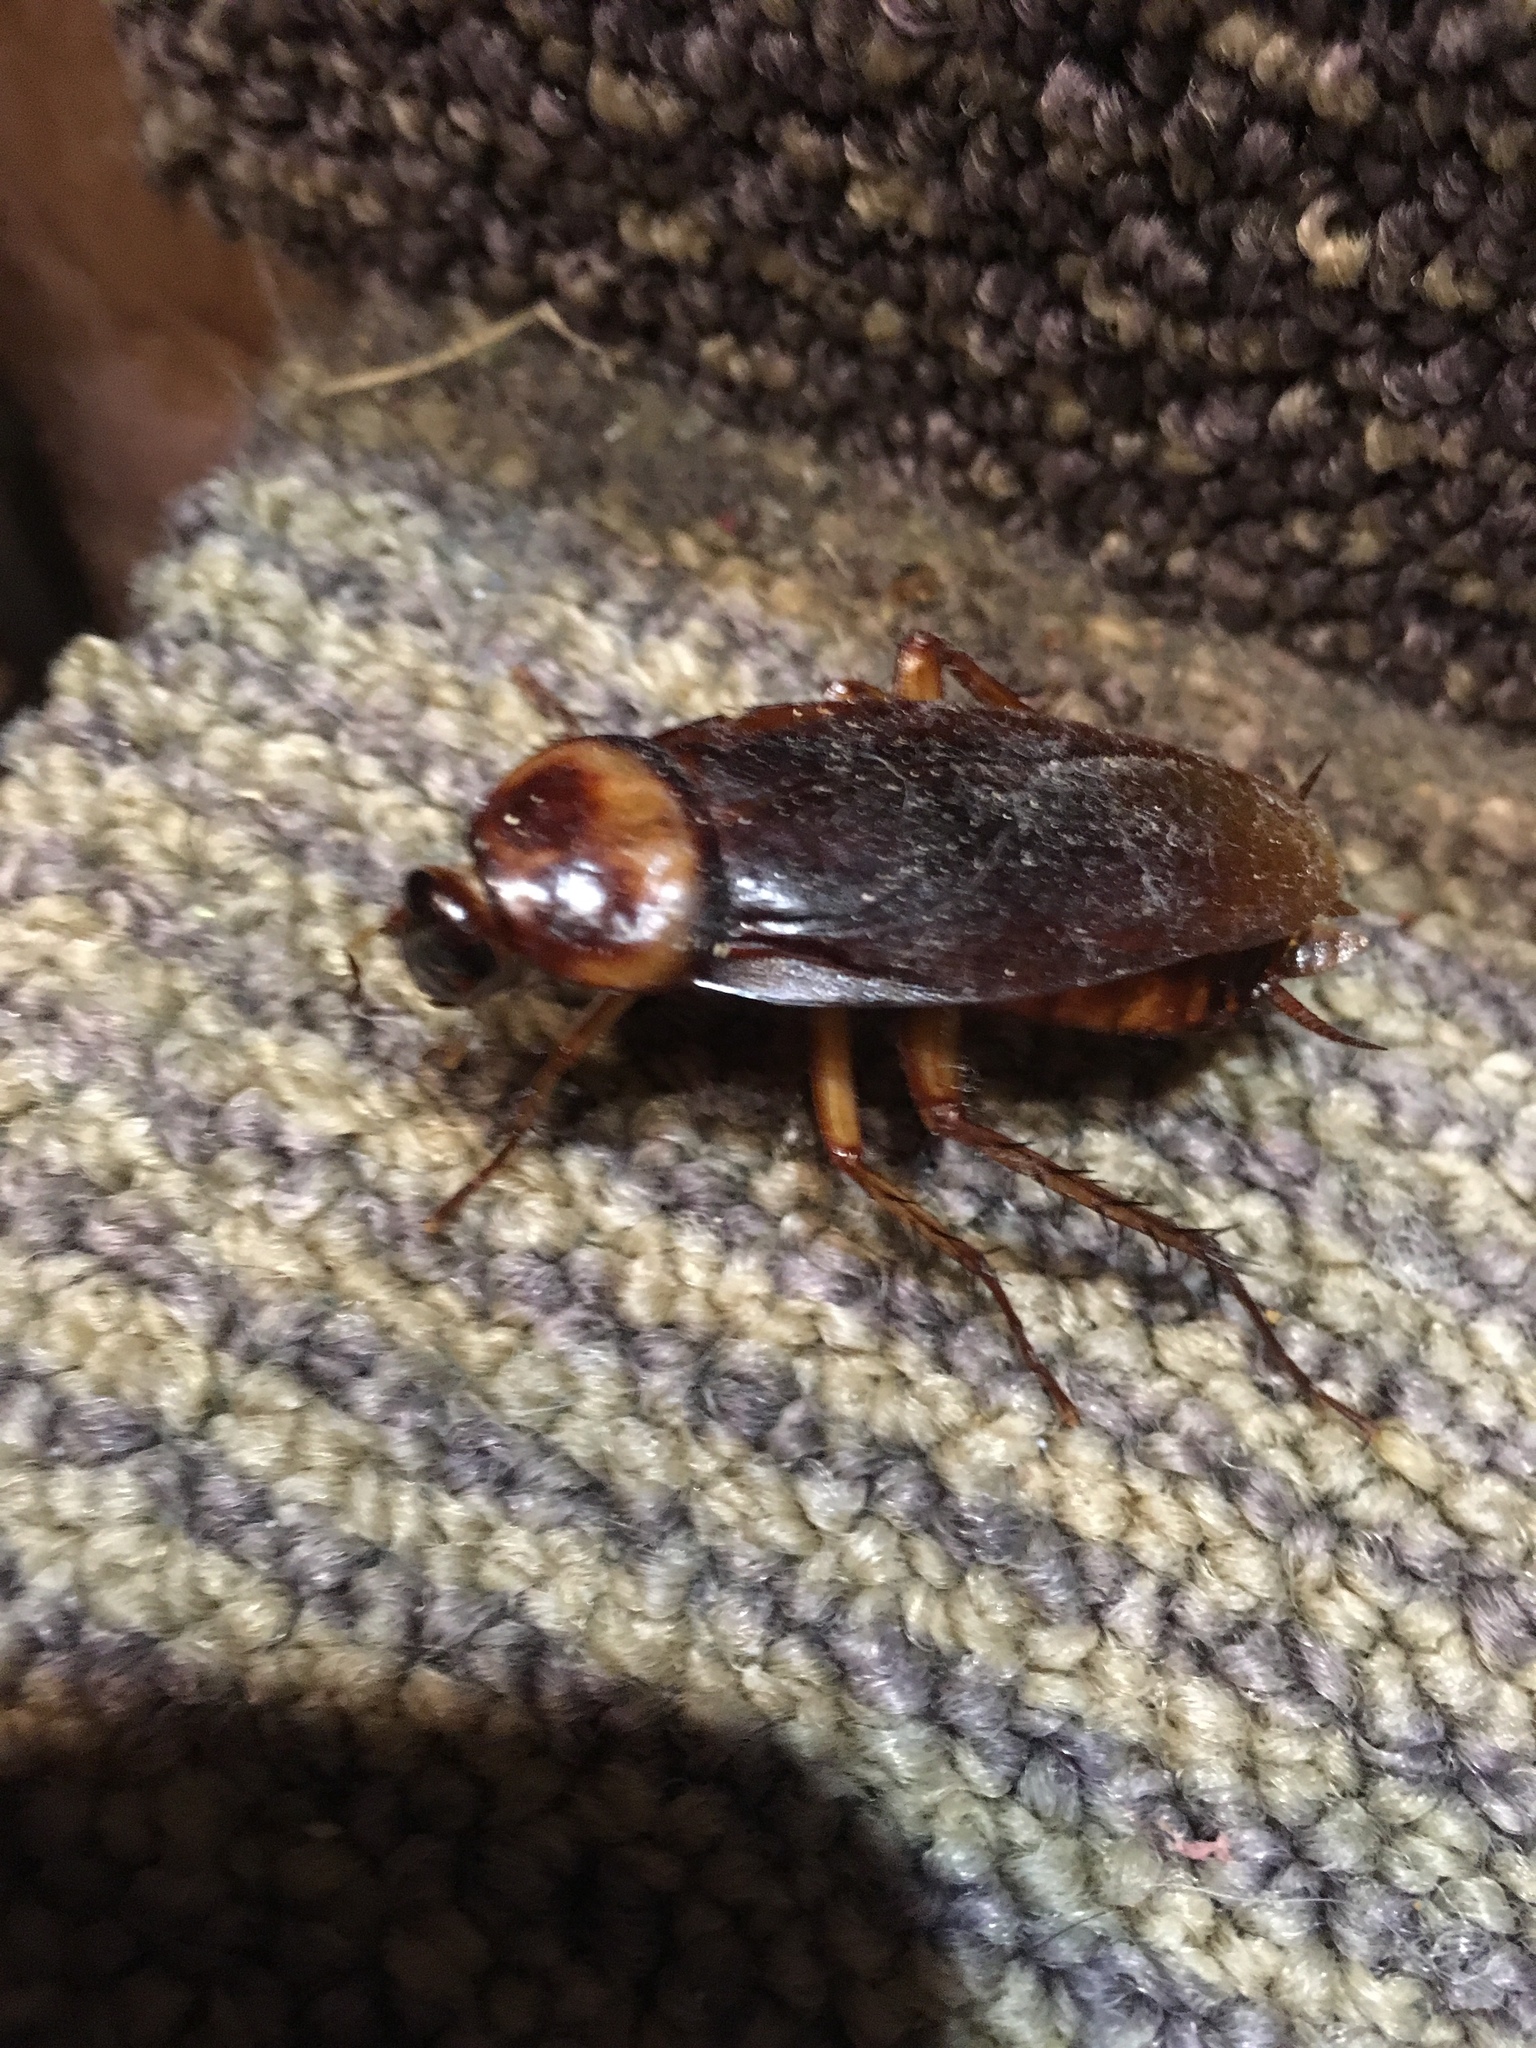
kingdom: Animalia
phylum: Arthropoda
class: Insecta
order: Blattodea
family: Blattidae
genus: Periplaneta
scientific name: Periplaneta americana
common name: American cockroach
